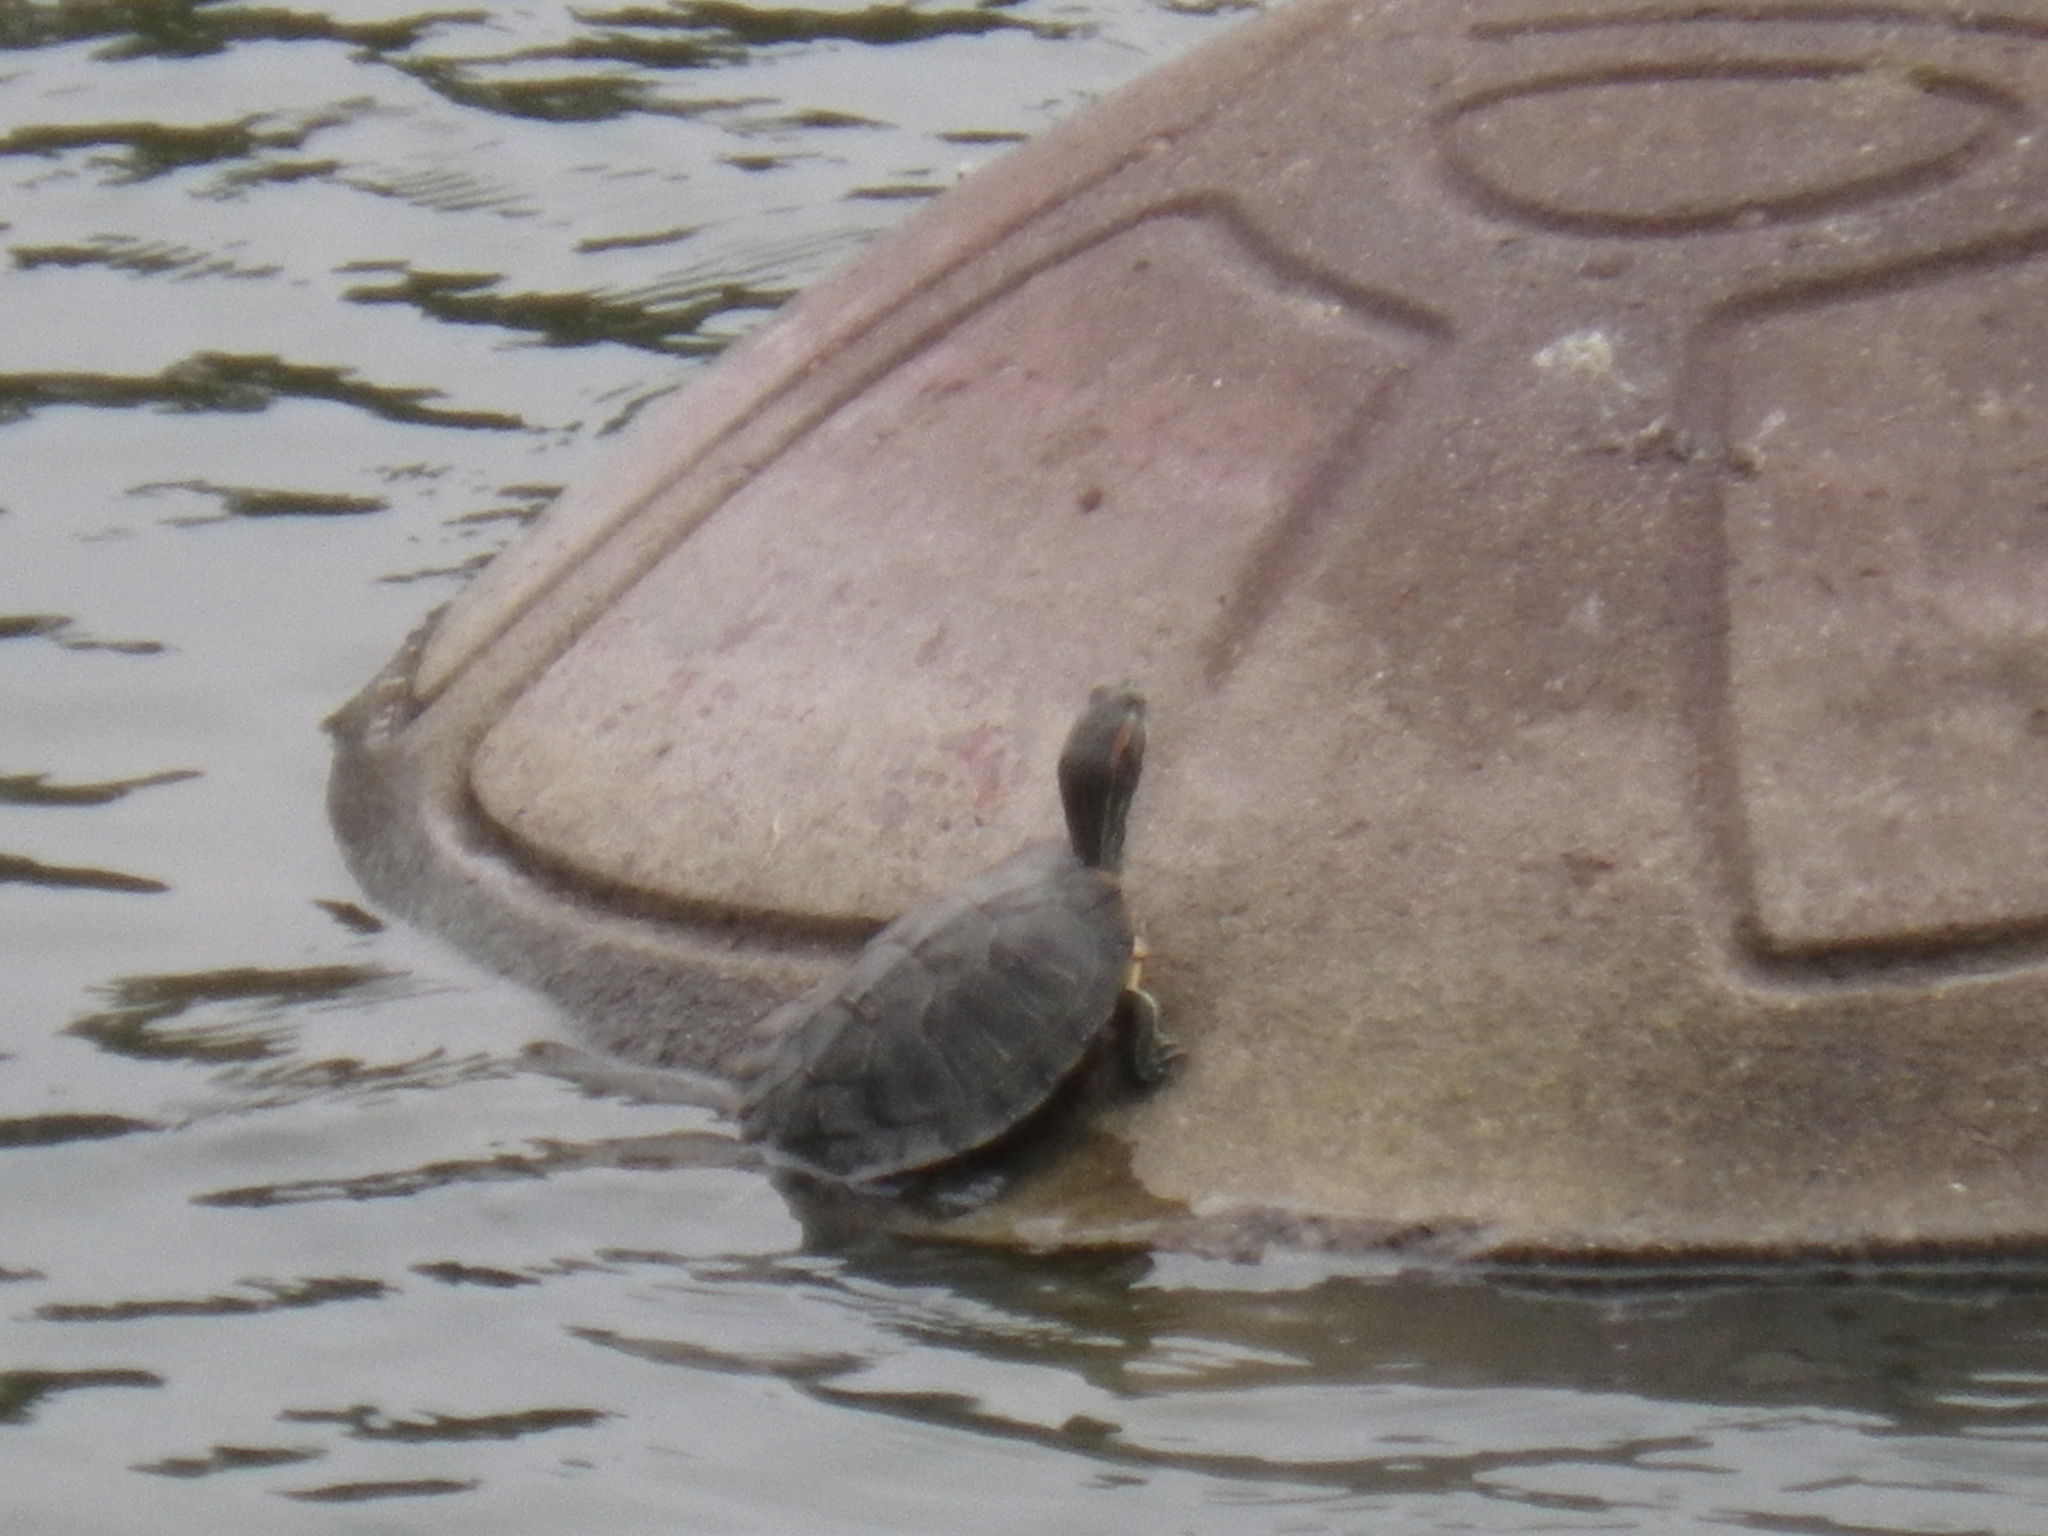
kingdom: Animalia
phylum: Chordata
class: Testudines
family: Emydidae
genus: Trachemys
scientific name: Trachemys scripta
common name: Slider
